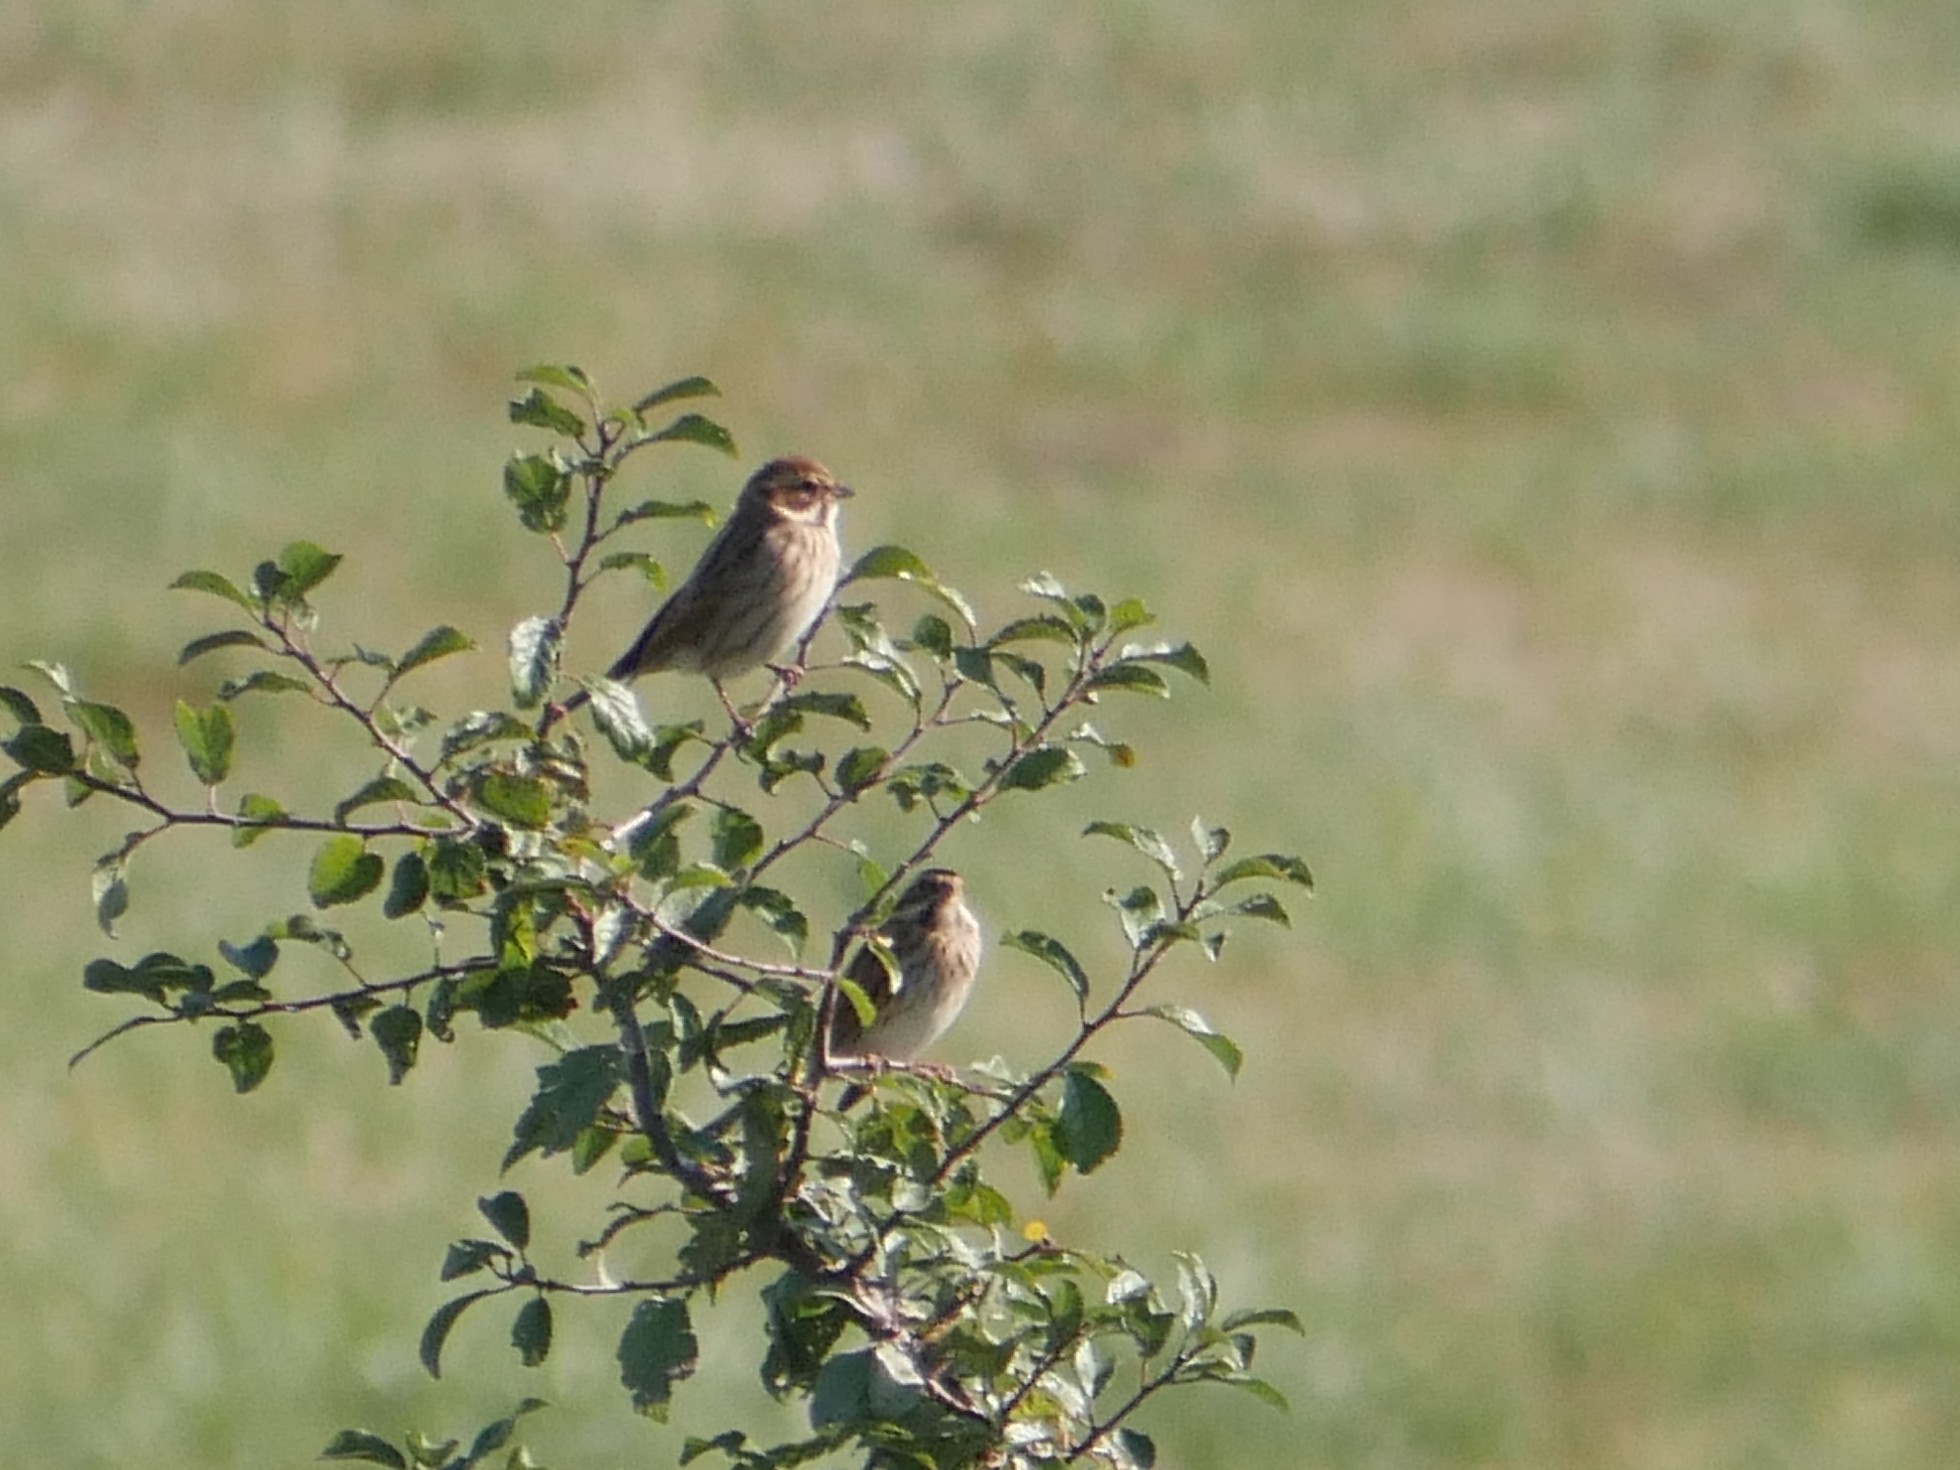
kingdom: Animalia
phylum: Chordata
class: Aves
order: Passeriformes
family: Emberizidae
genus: Emberiza
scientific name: Emberiza schoeniclus
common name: Reed bunting
